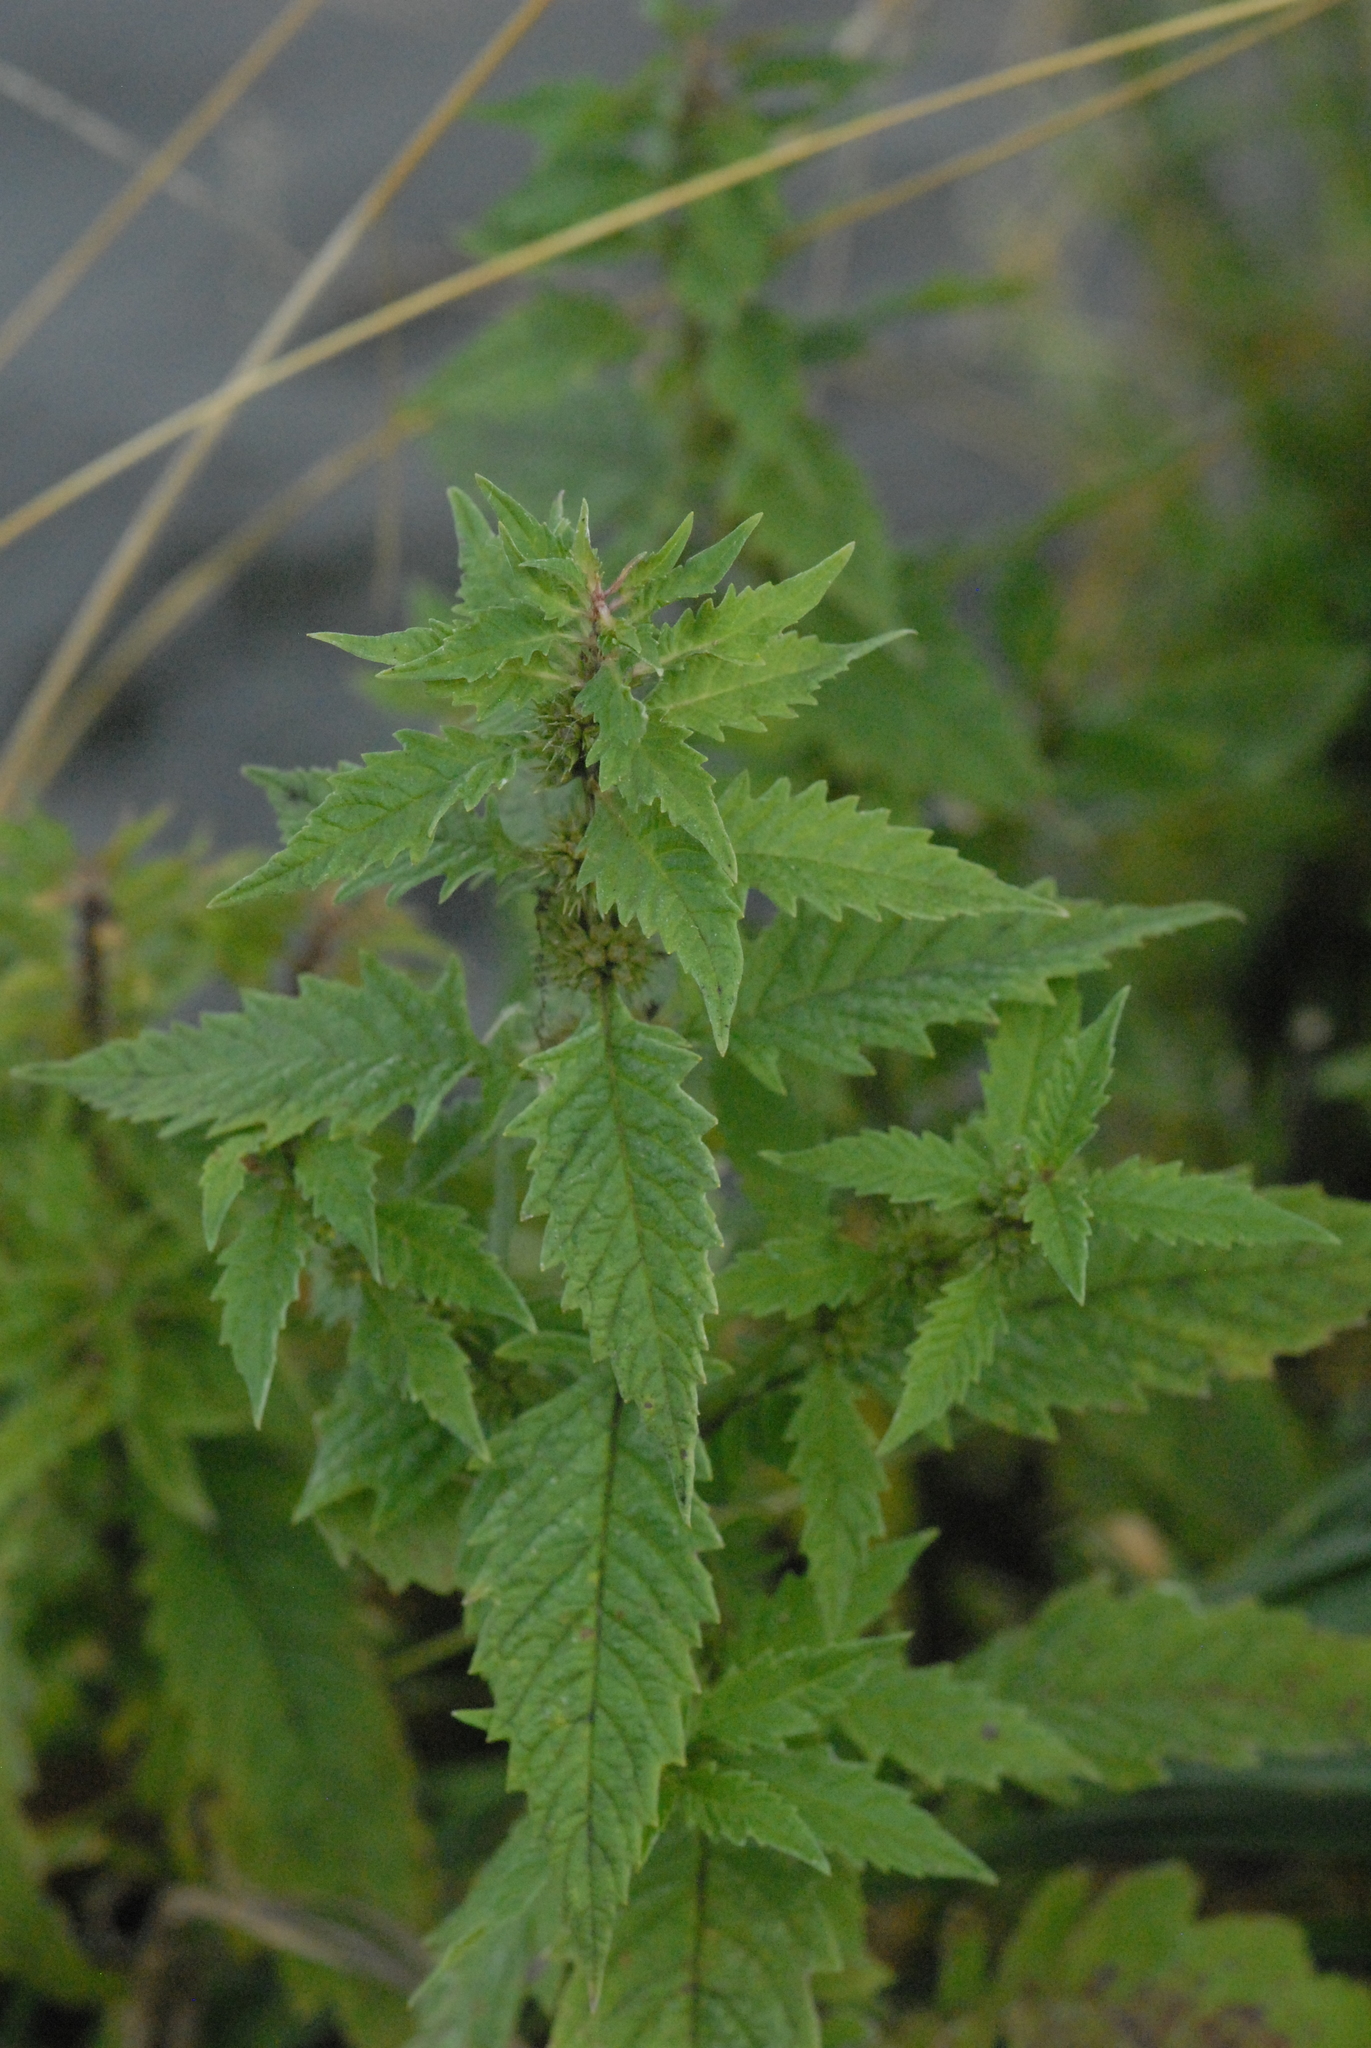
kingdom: Plantae
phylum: Tracheophyta
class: Magnoliopsida
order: Lamiales
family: Lamiaceae
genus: Lycopus
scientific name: Lycopus europaeus
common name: European bugleweed
